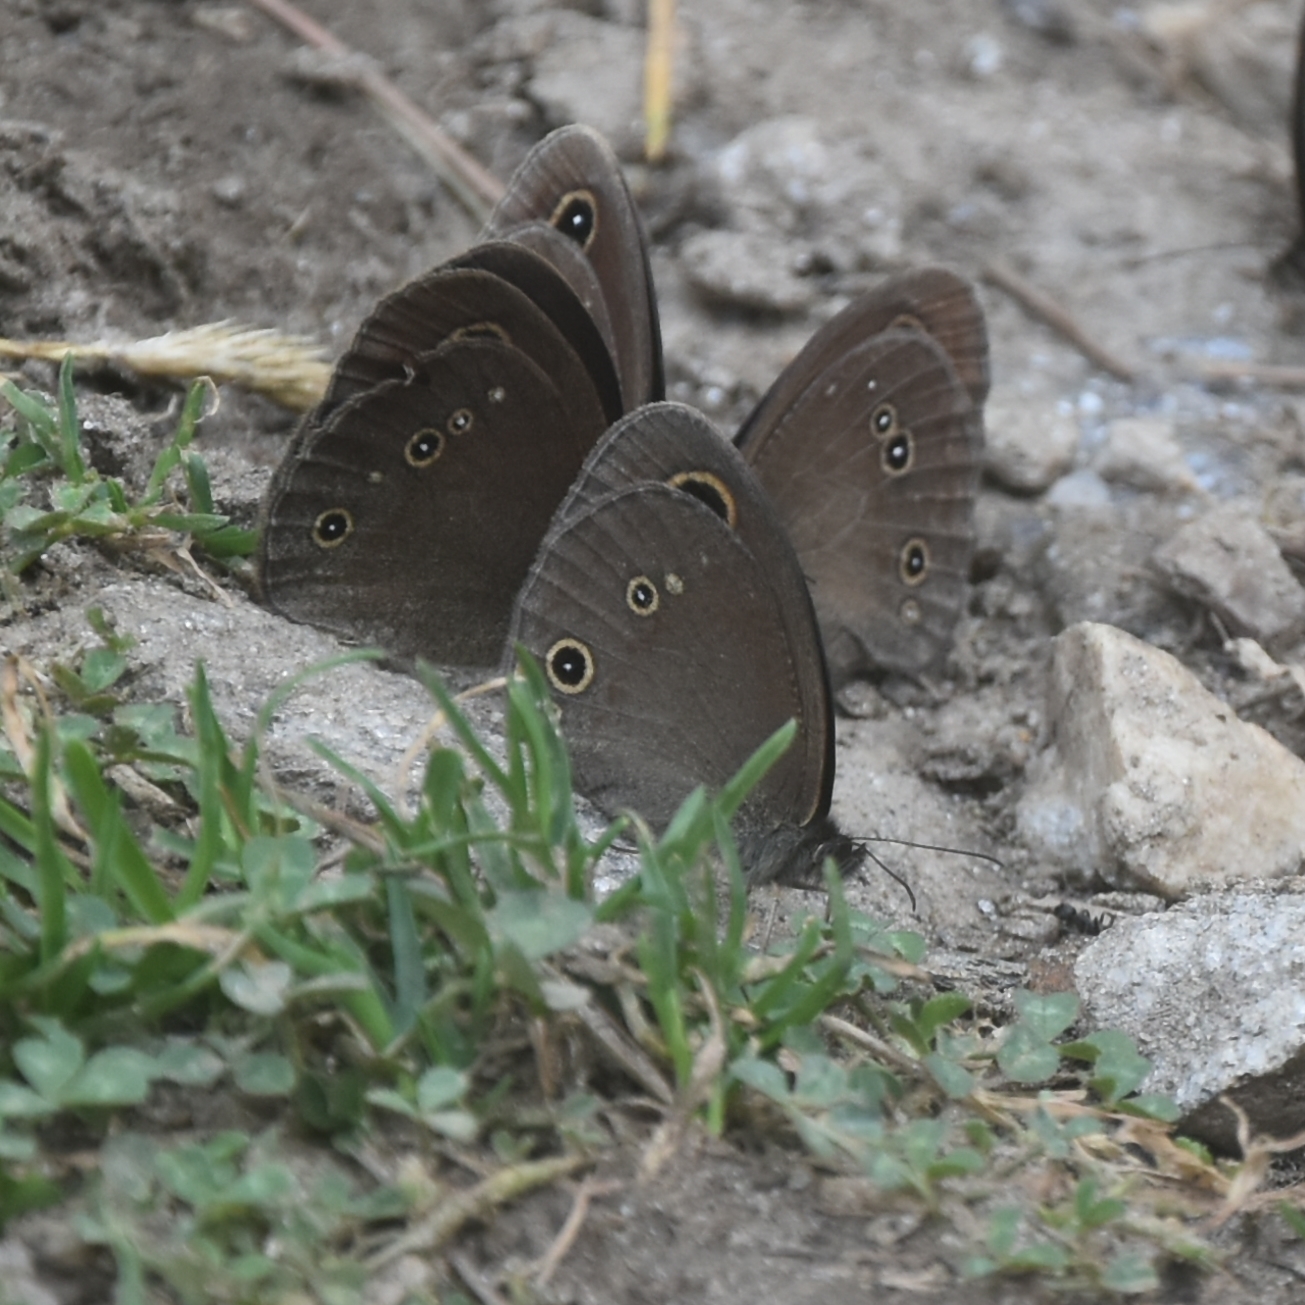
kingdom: Animalia
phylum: Arthropoda
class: Insecta
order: Lepidoptera
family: Nymphalidae
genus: Callerebia
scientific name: Callerebia nirmala
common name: Common argus
